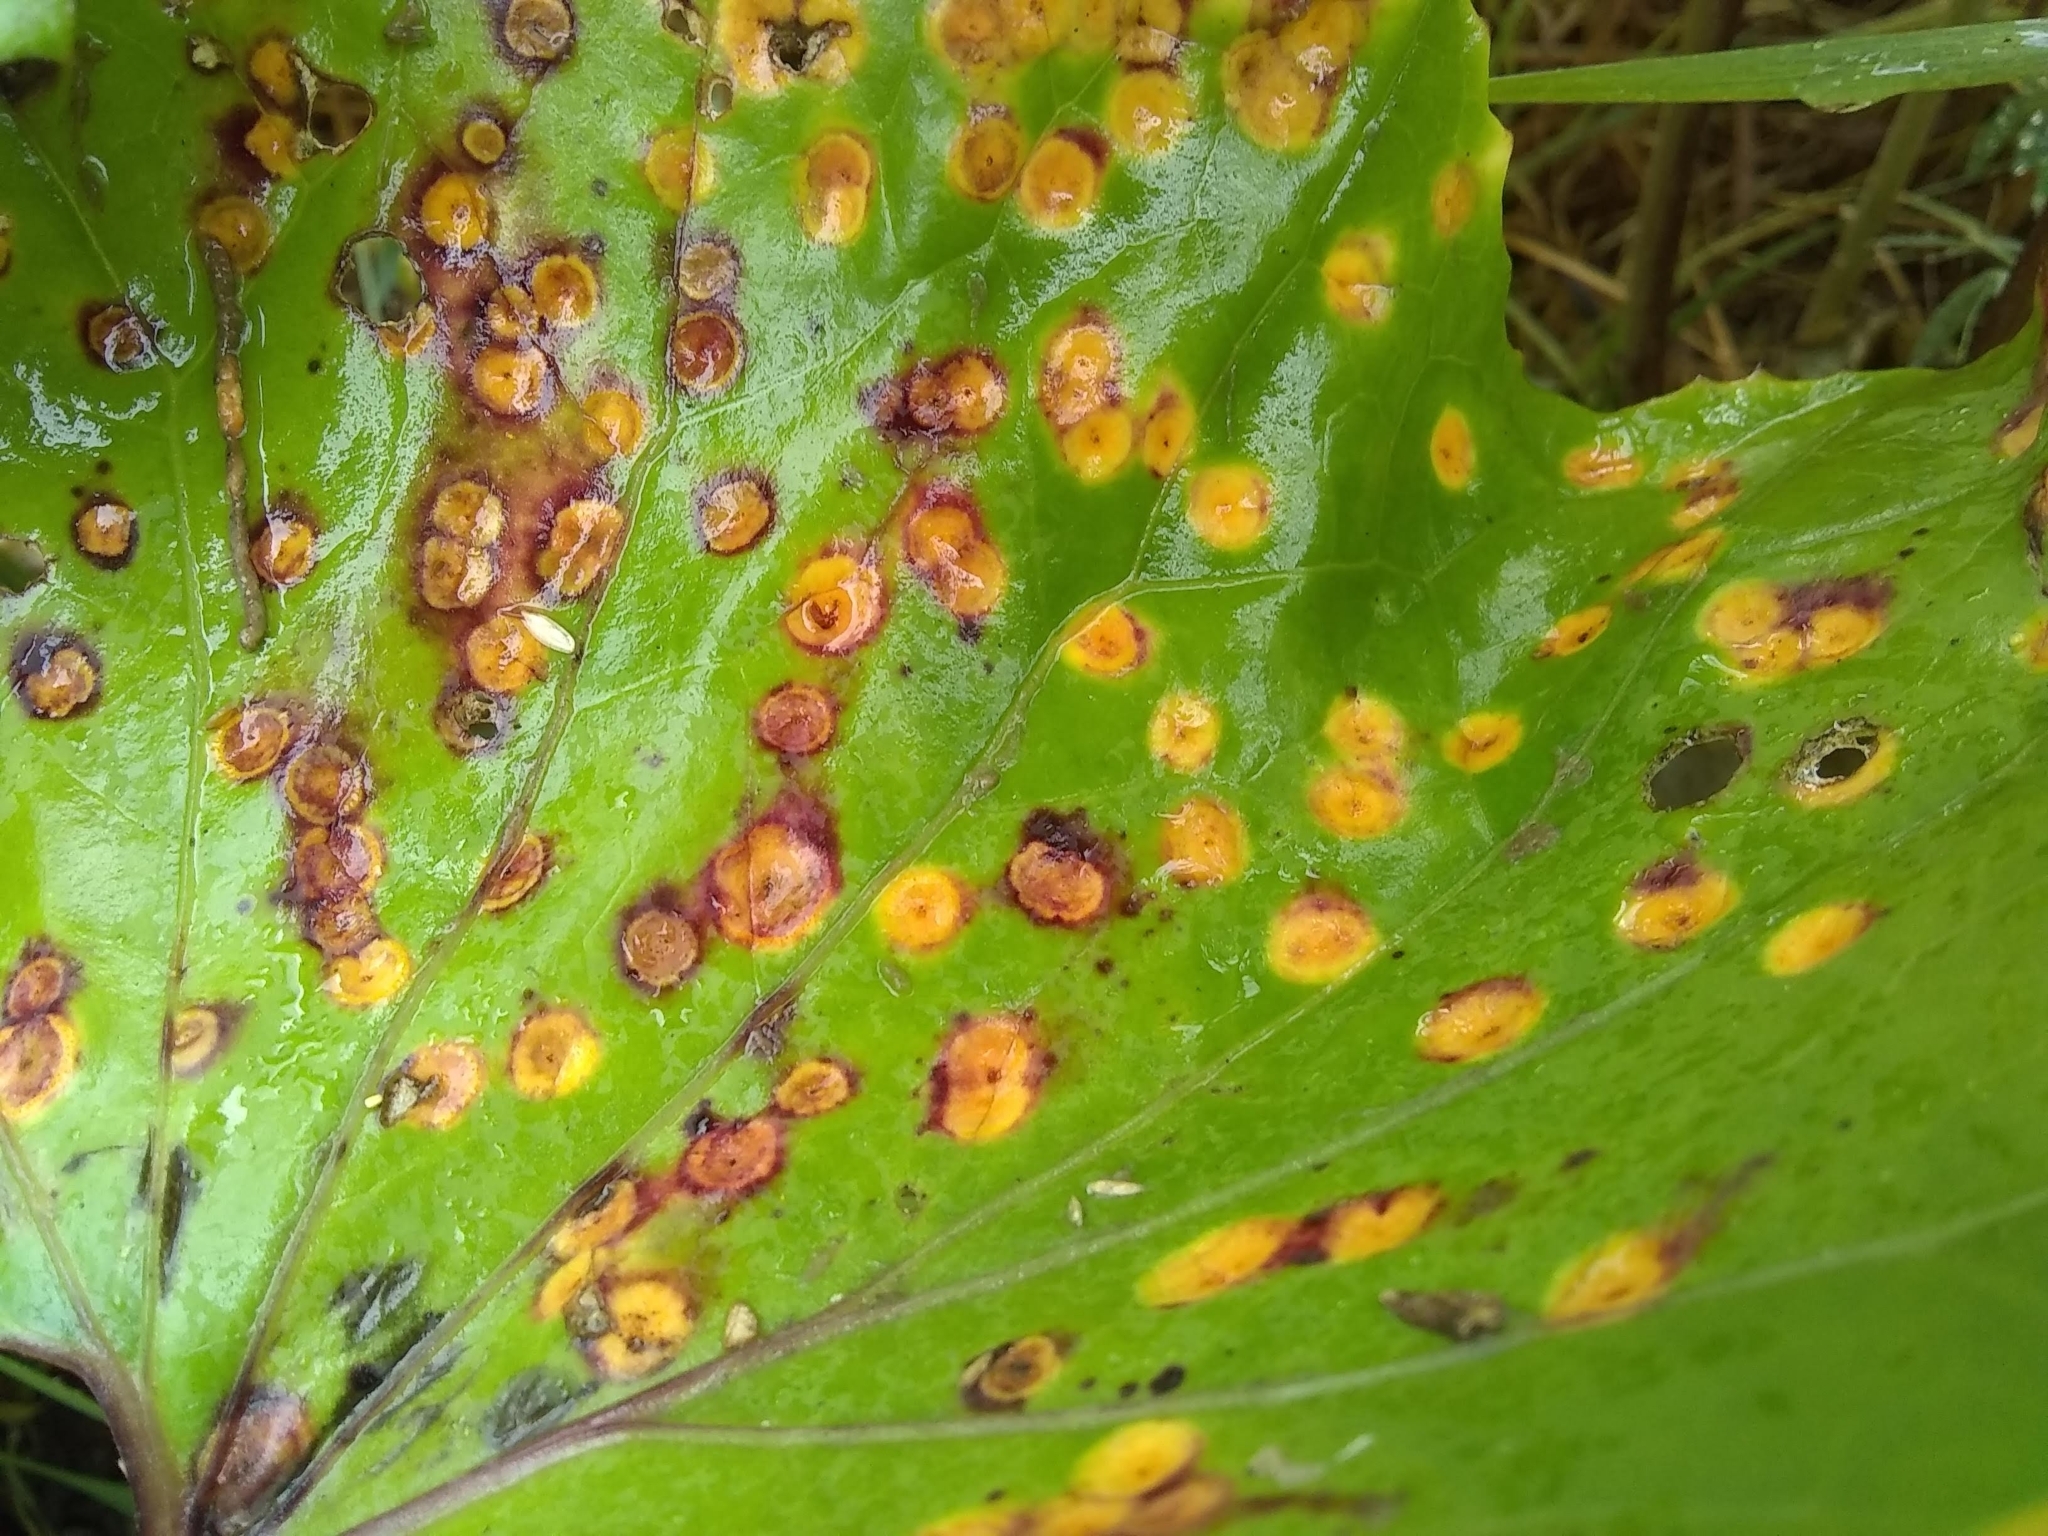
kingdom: Fungi
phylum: Basidiomycota
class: Pucciniomycetes
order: Pucciniales
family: Pucciniaceae
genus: Puccinia
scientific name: Puccinia
